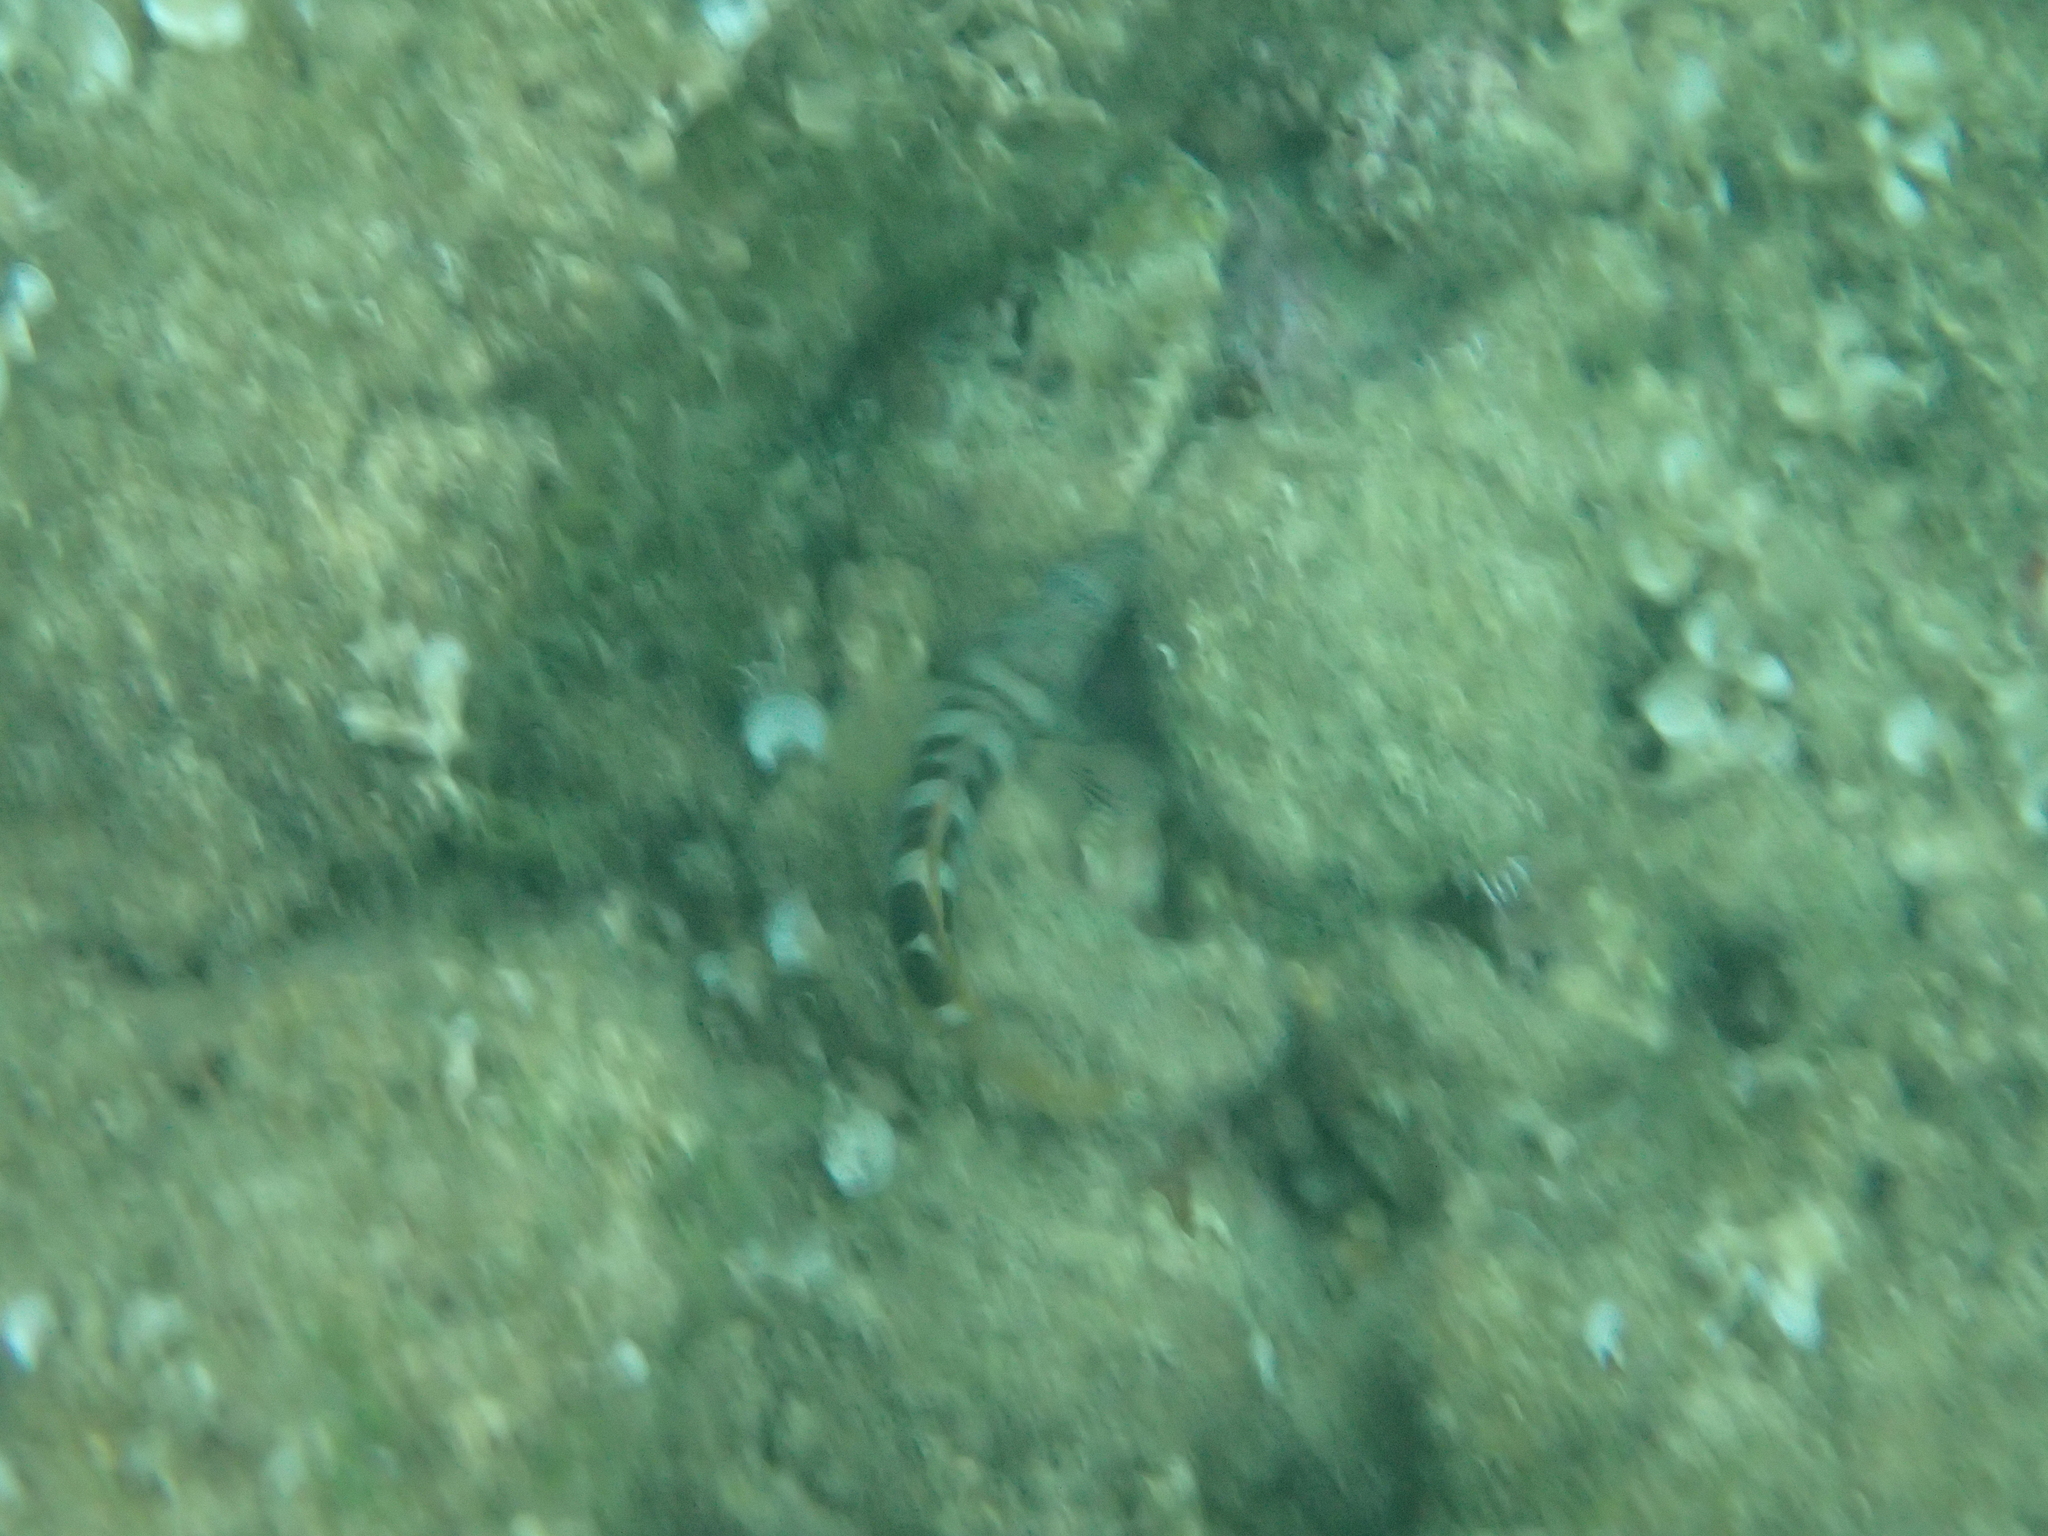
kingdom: Animalia
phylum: Chordata
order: Perciformes
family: Serranidae
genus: Serranus
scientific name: Serranus scriba
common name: Painted comber
